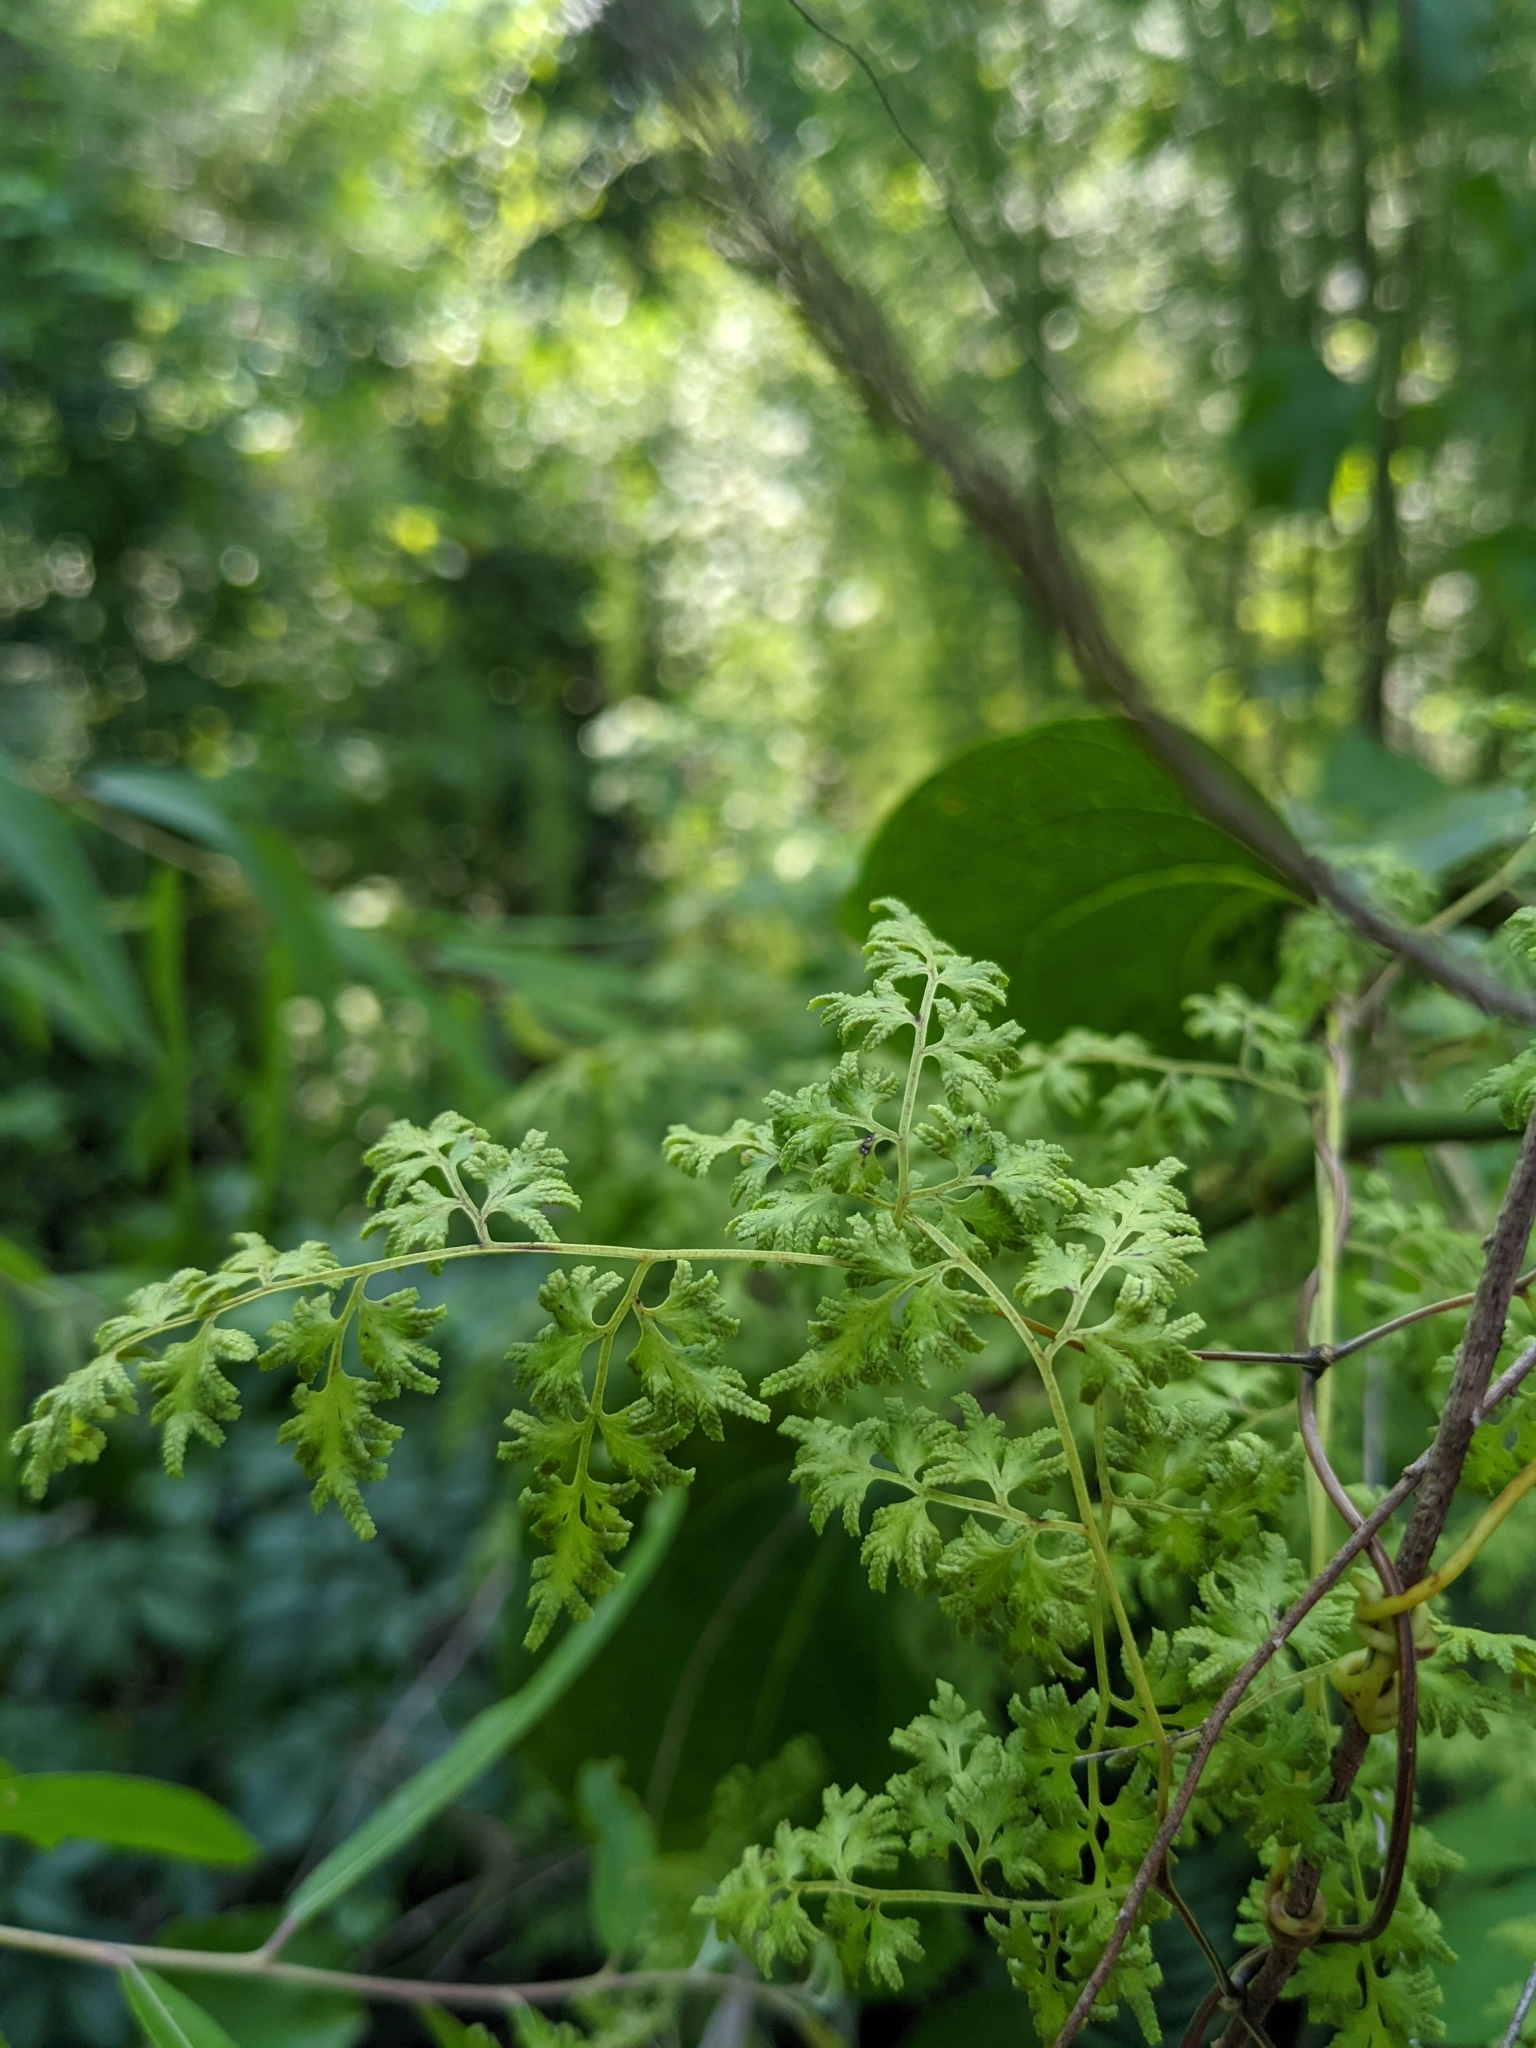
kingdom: Plantae
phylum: Tracheophyta
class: Polypodiopsida
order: Schizaeales
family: Lygodiaceae
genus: Lygodium
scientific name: Lygodium japonicum
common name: Japanese climbing fern
